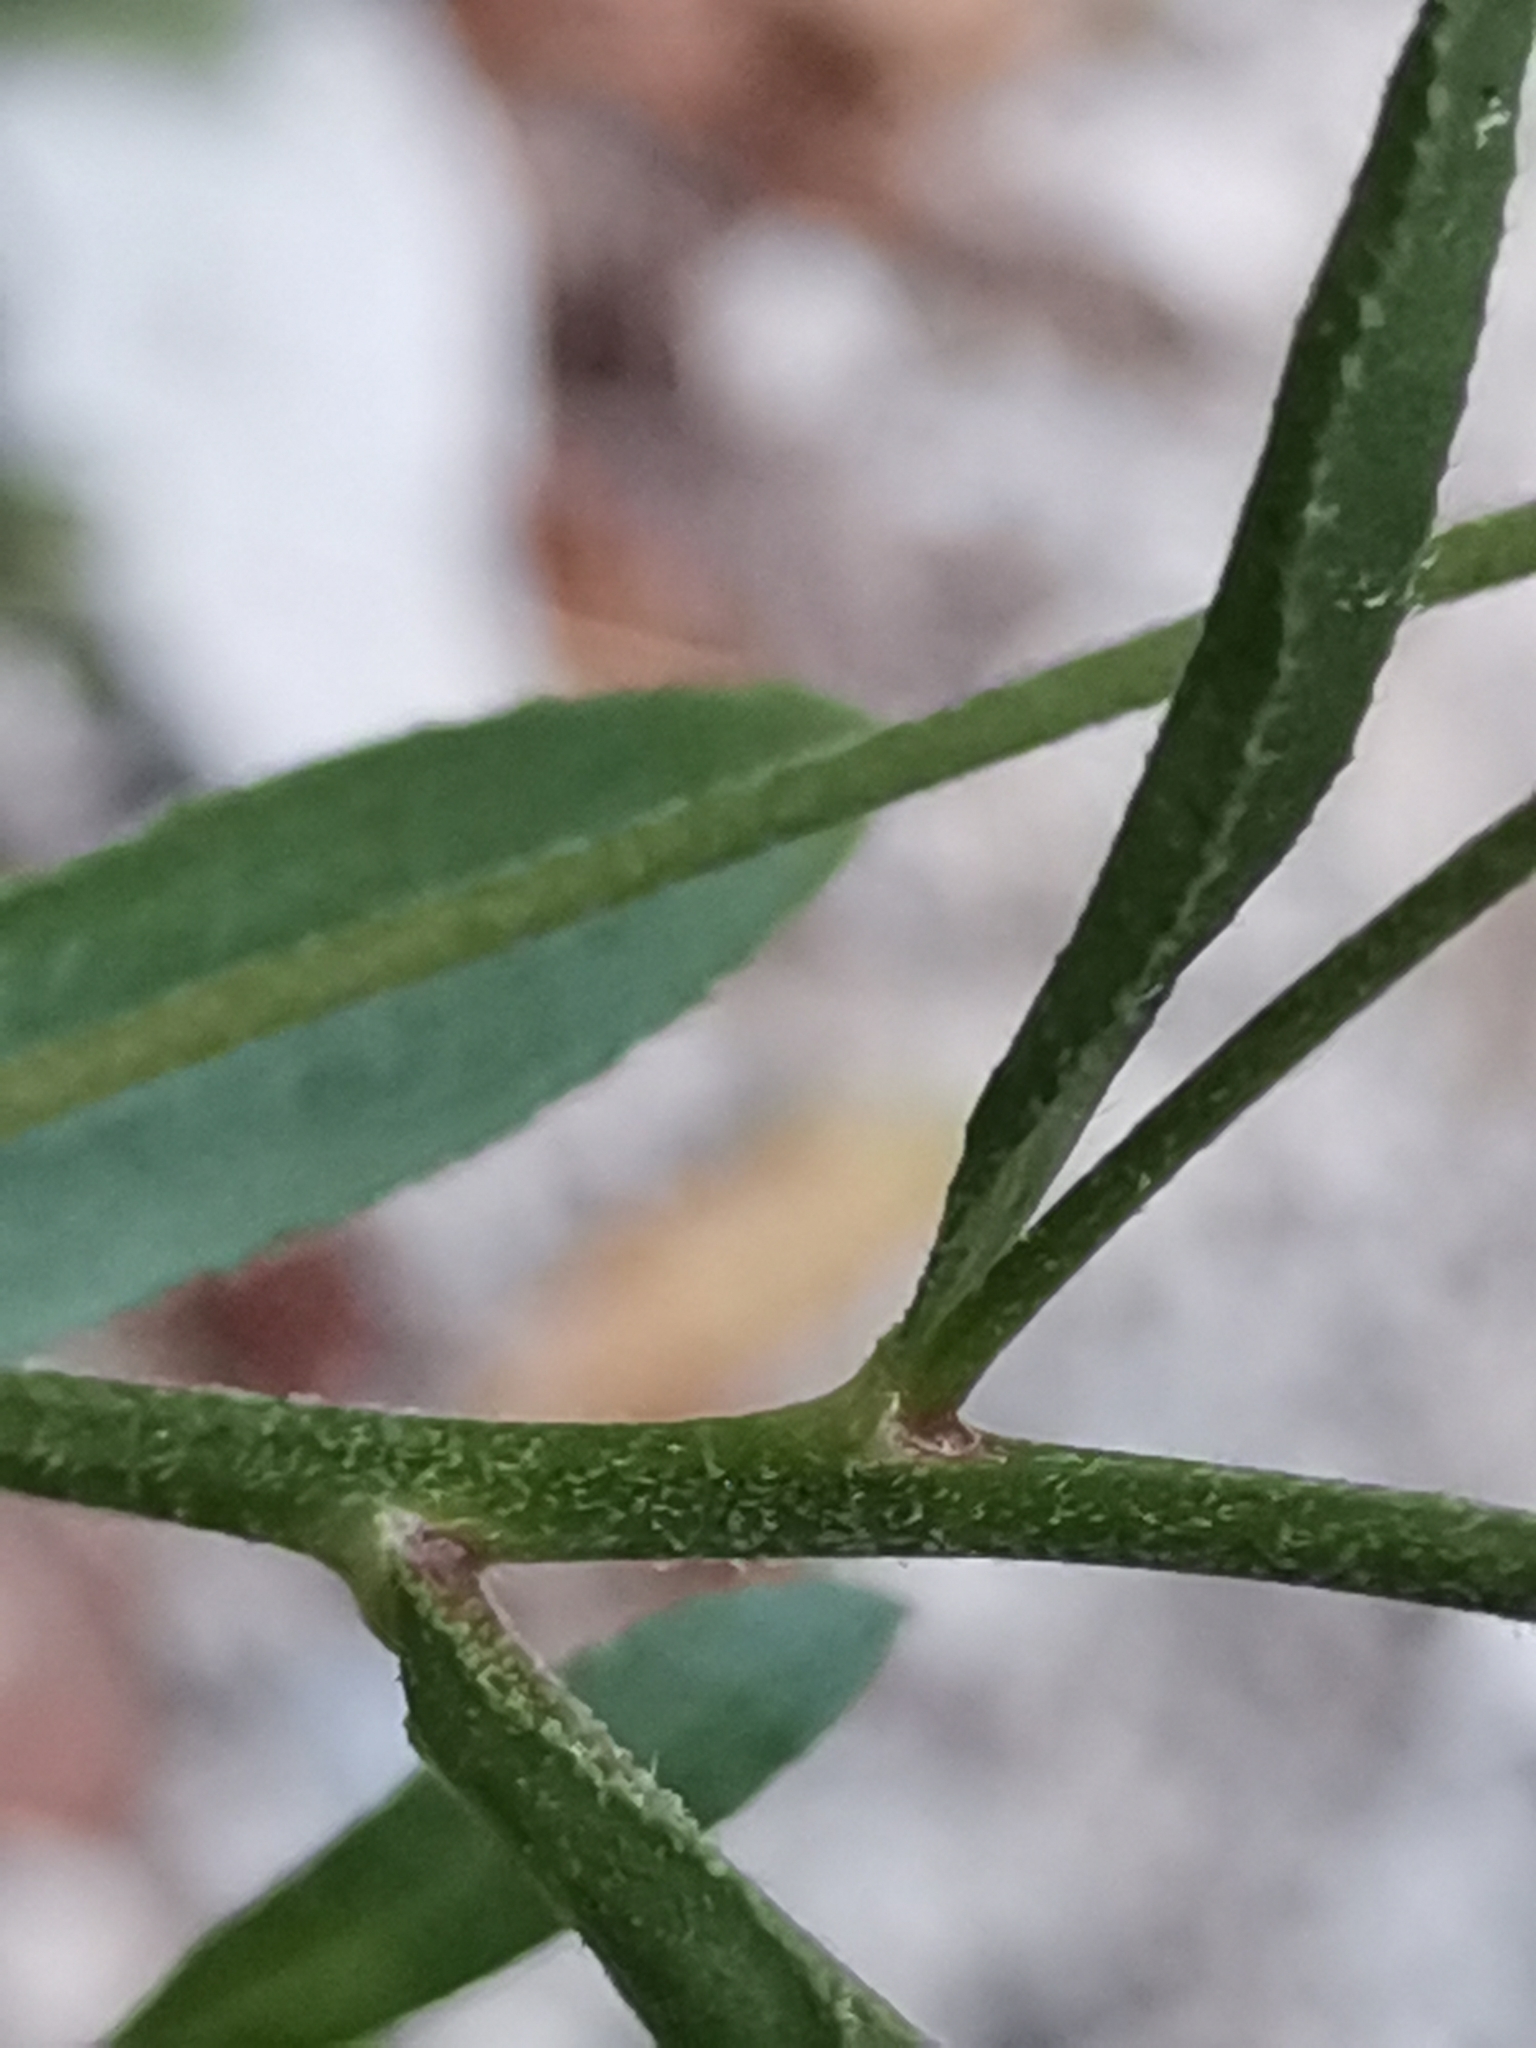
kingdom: Plantae
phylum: Tracheophyta
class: Magnoliopsida
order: Asterales
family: Asteraceae
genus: Aster
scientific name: Aster amellus
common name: European michaelmas daisy
